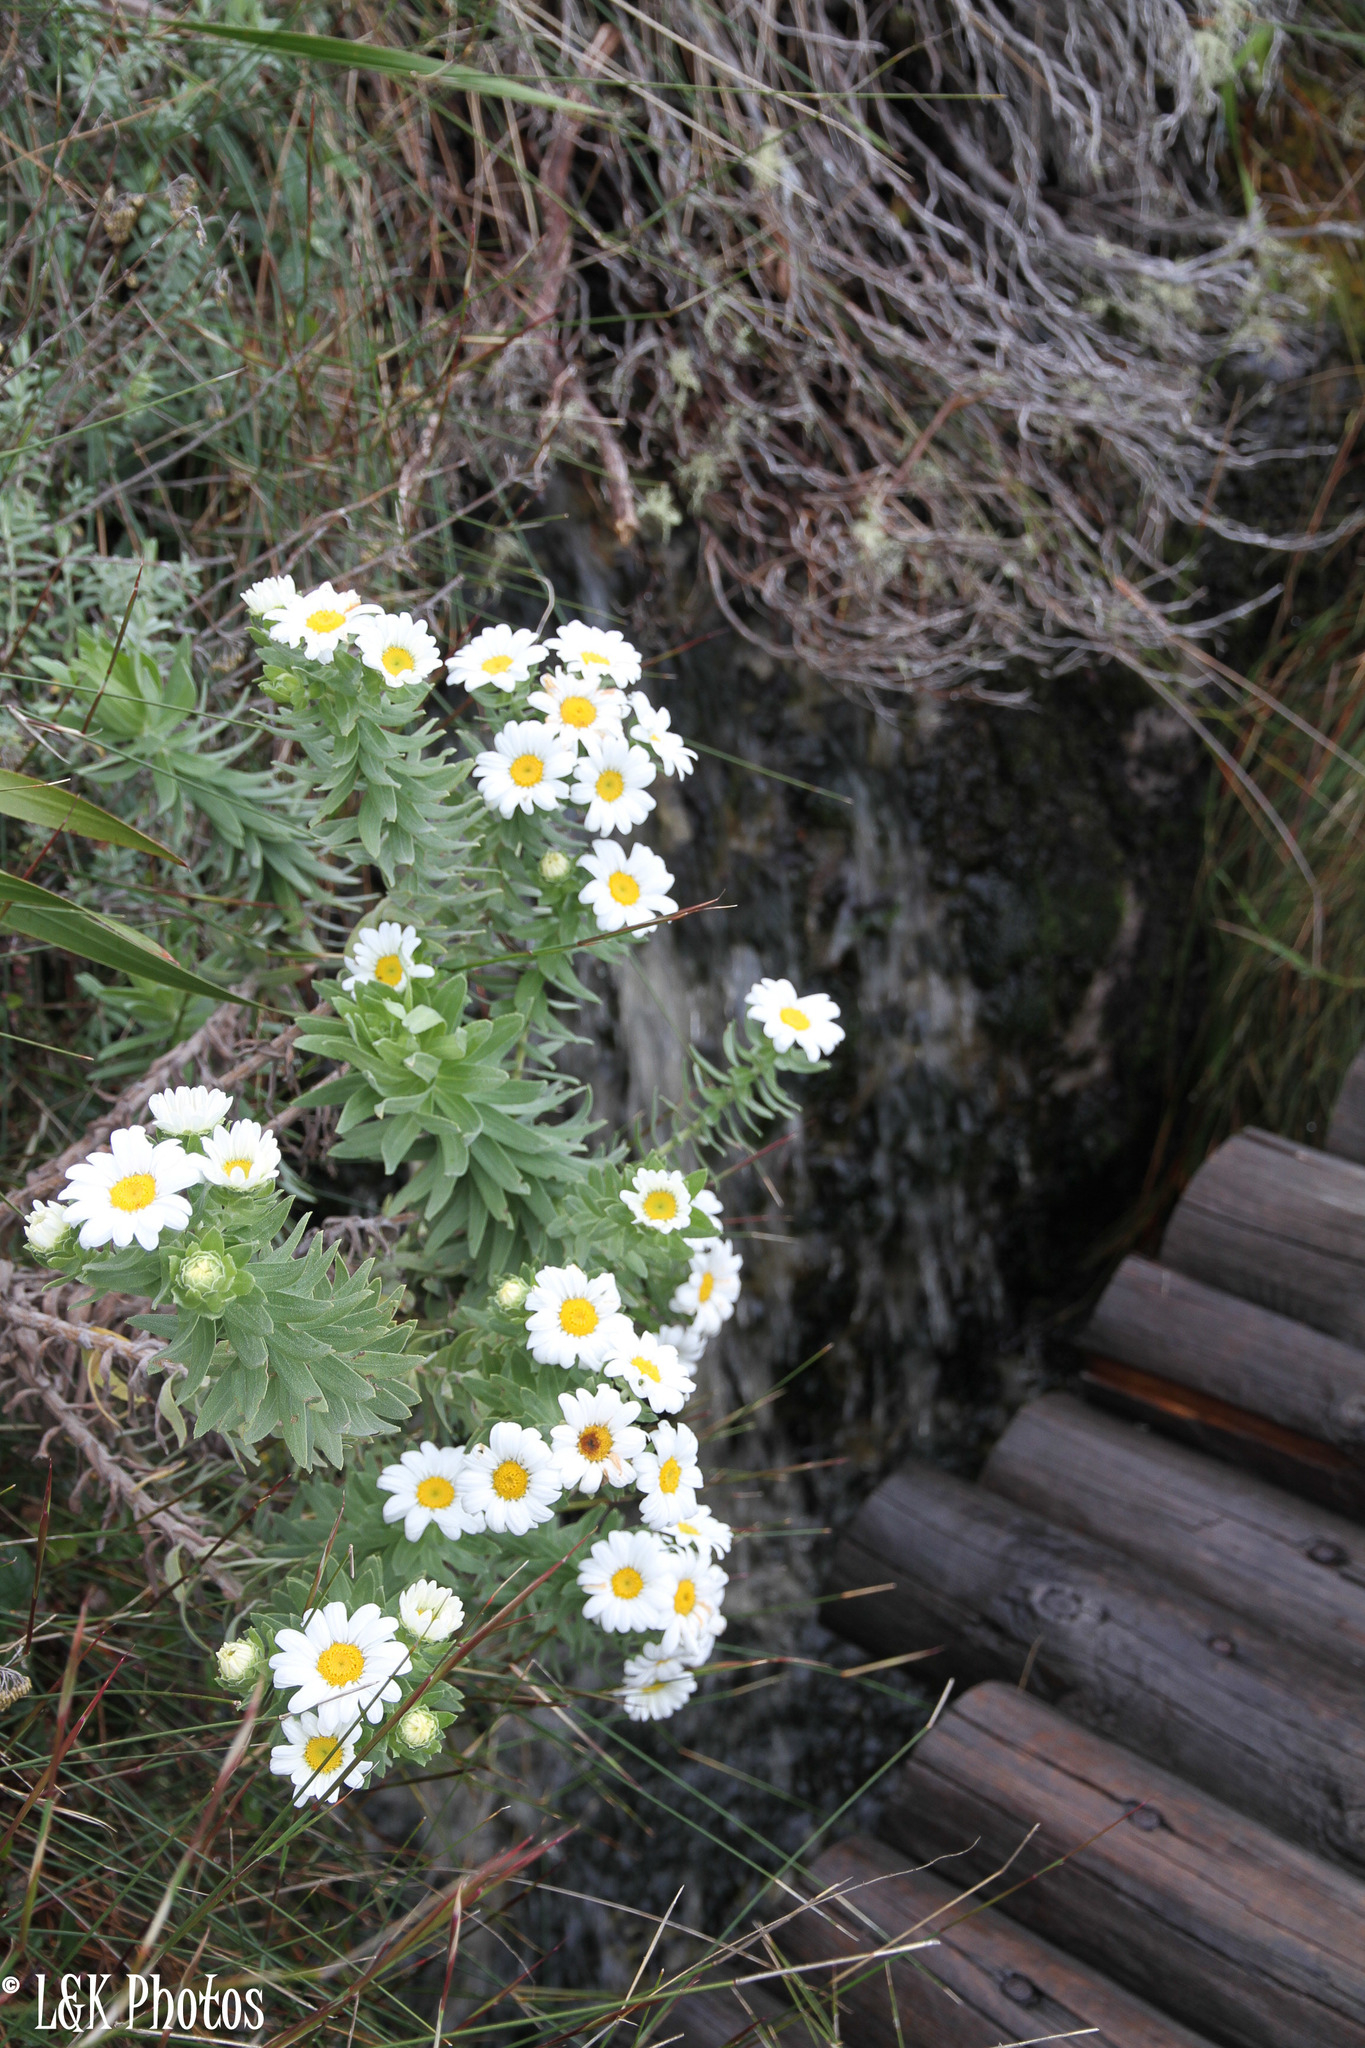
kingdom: Plantae
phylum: Tracheophyta
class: Magnoliopsida
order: Asterales
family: Asteraceae
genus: Osmitopsis
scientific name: Osmitopsis asteriscoides
